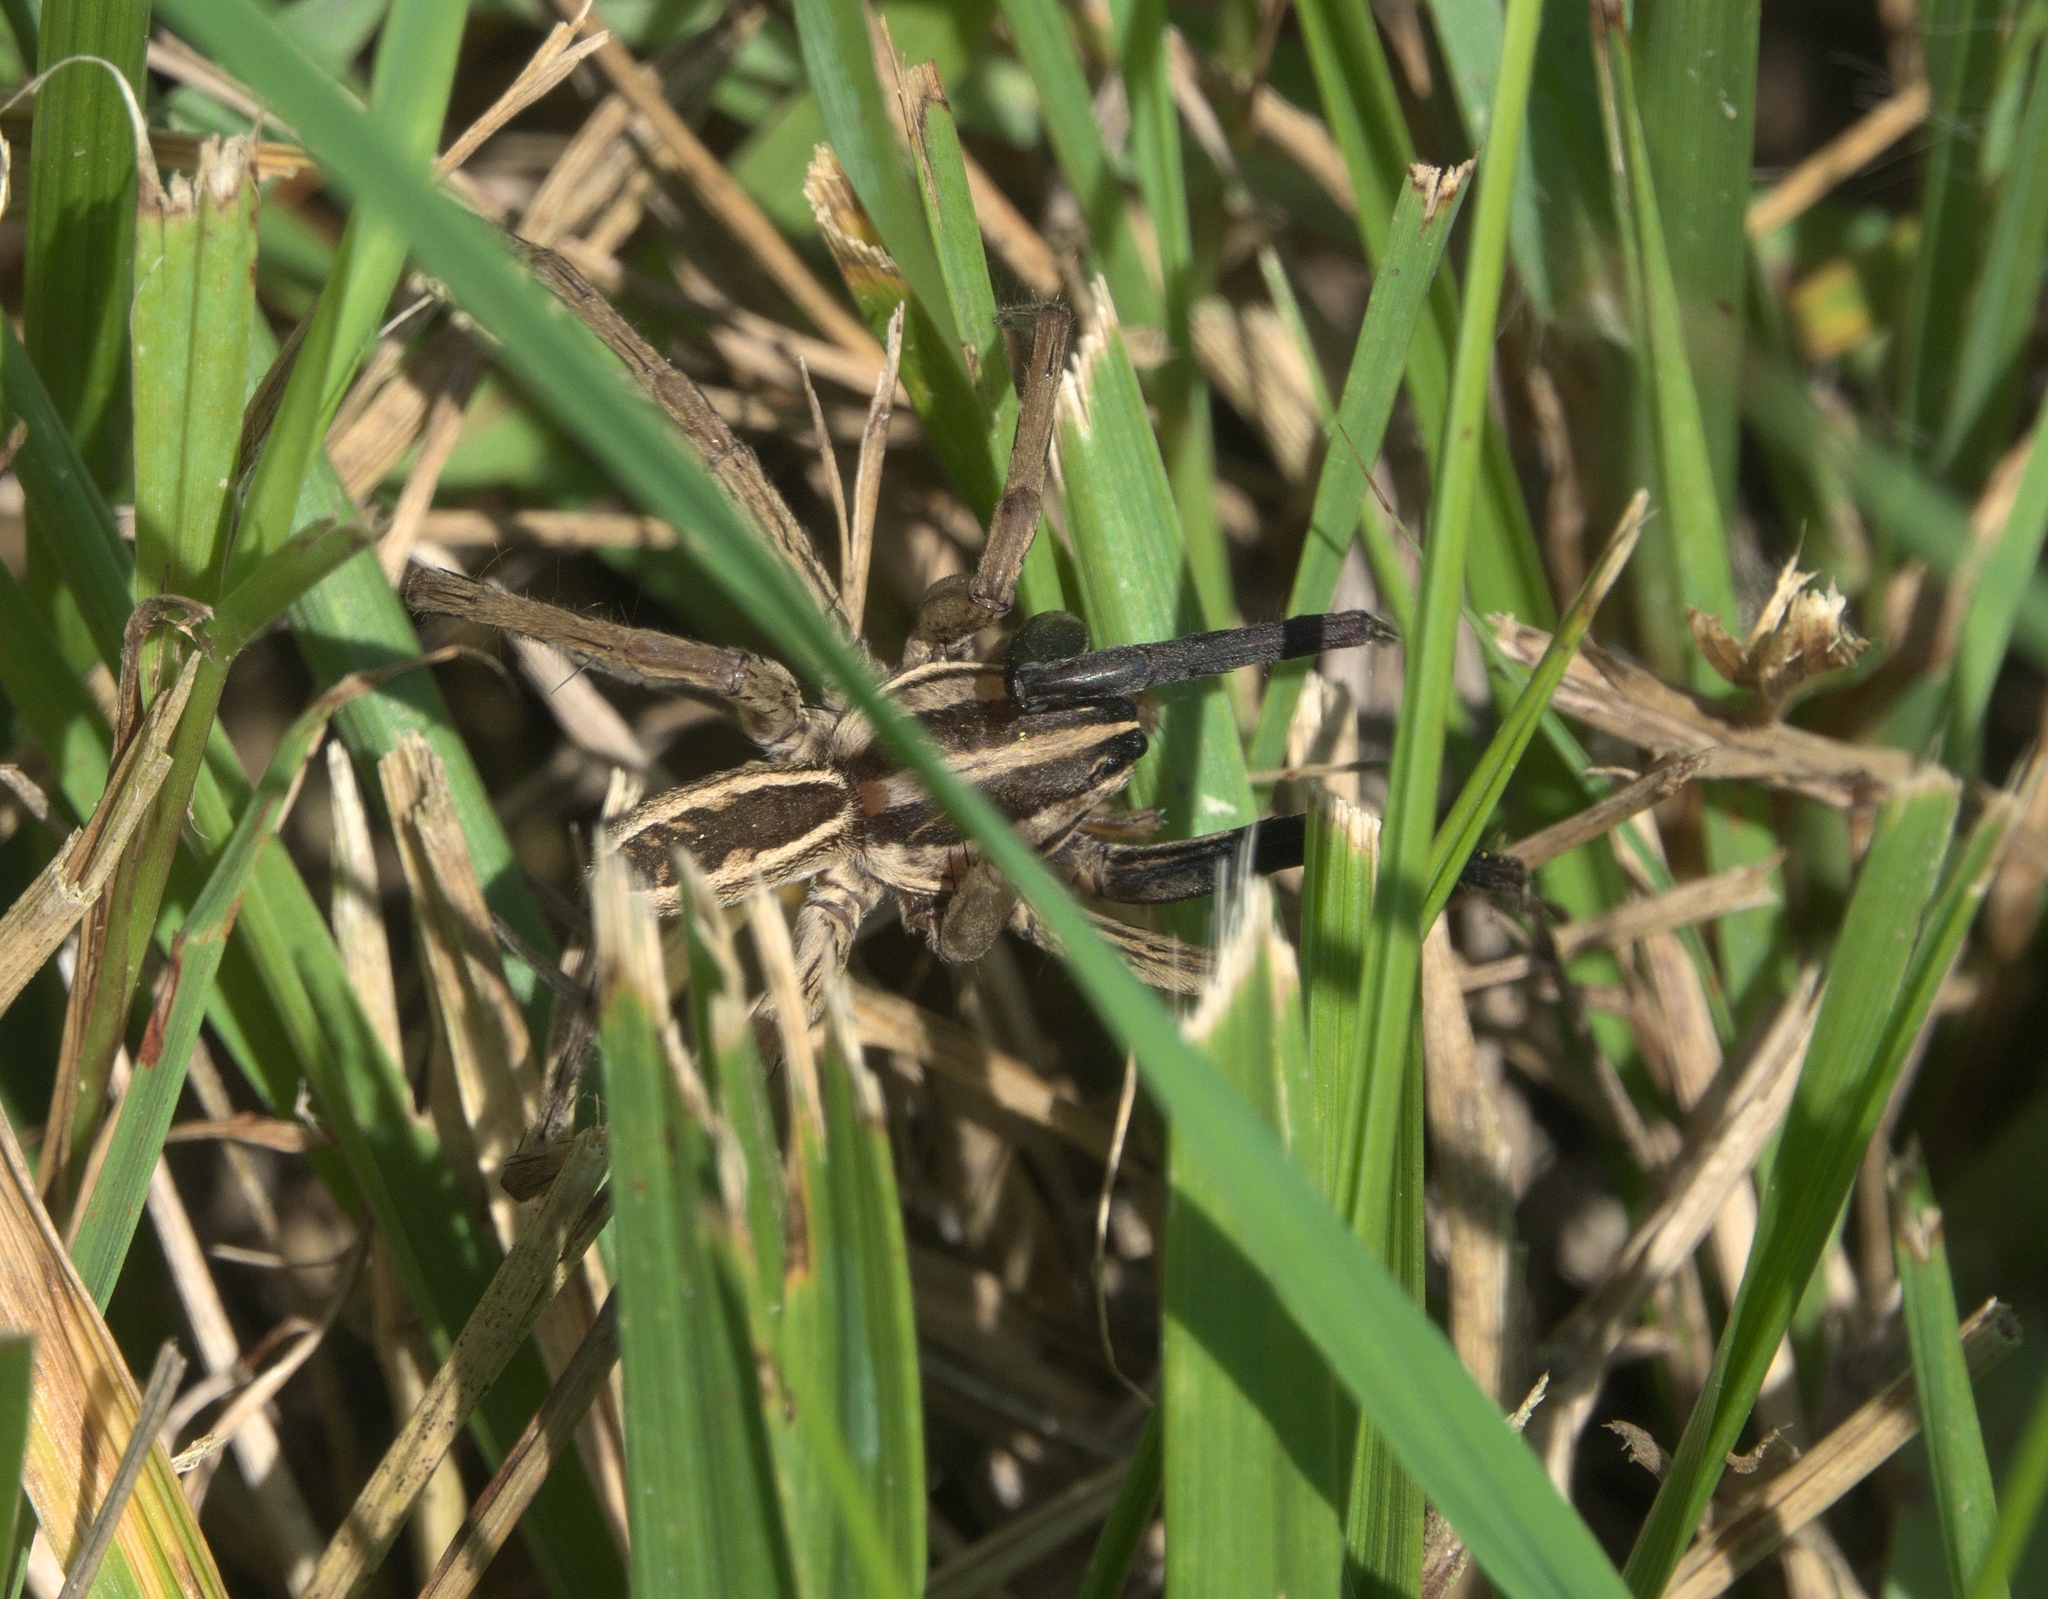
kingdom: Animalia
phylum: Arthropoda
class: Arachnida
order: Araneae
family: Lycosidae
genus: Rabidosa
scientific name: Rabidosa rabida
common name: Rabid wolf spider
